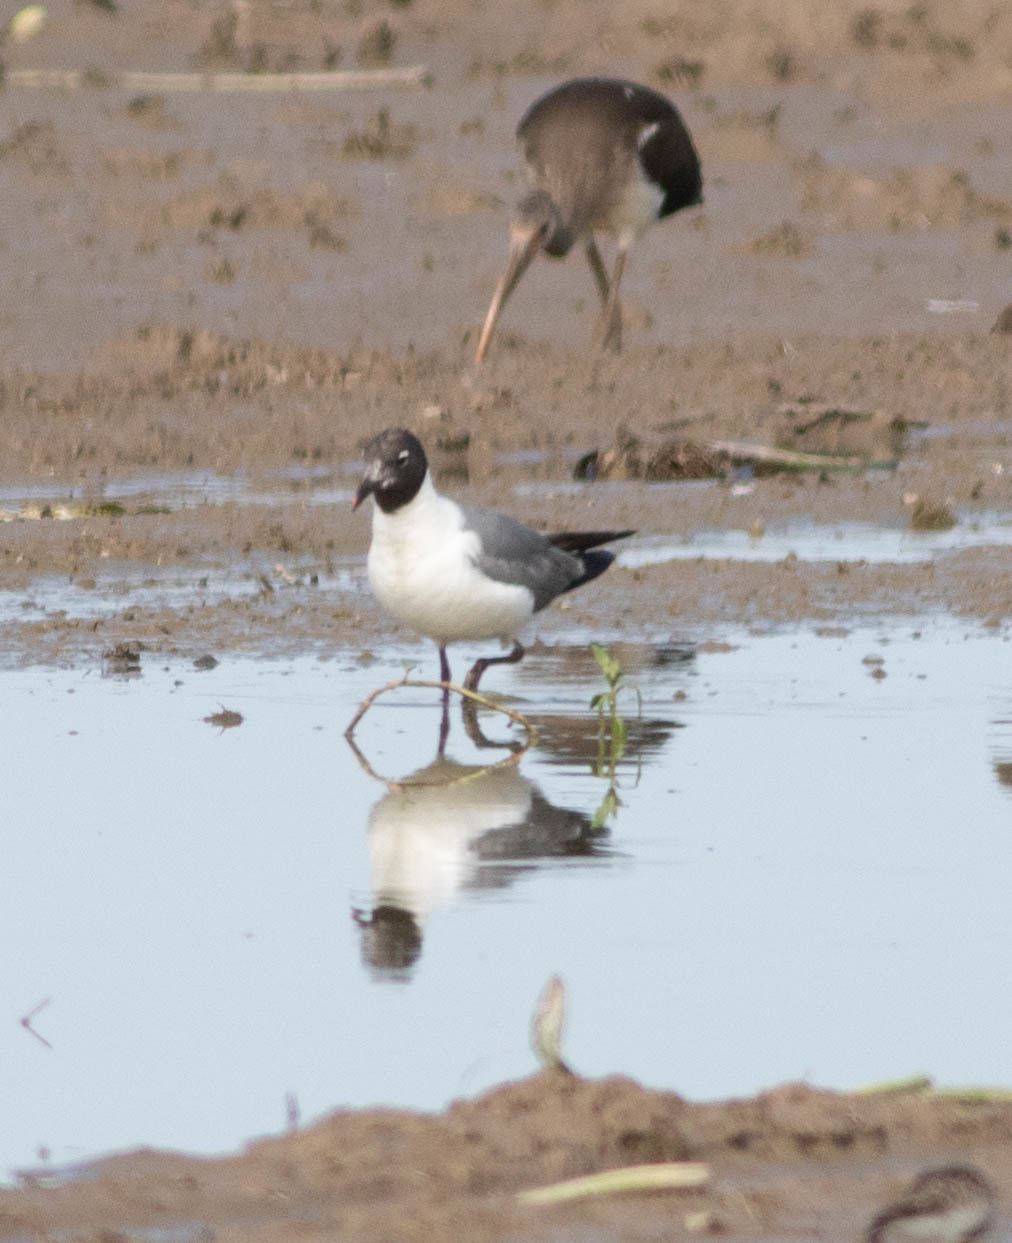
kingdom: Animalia
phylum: Chordata
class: Aves
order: Charadriiformes
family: Laridae
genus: Leucophaeus
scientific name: Leucophaeus atricilla
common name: Laughing gull
